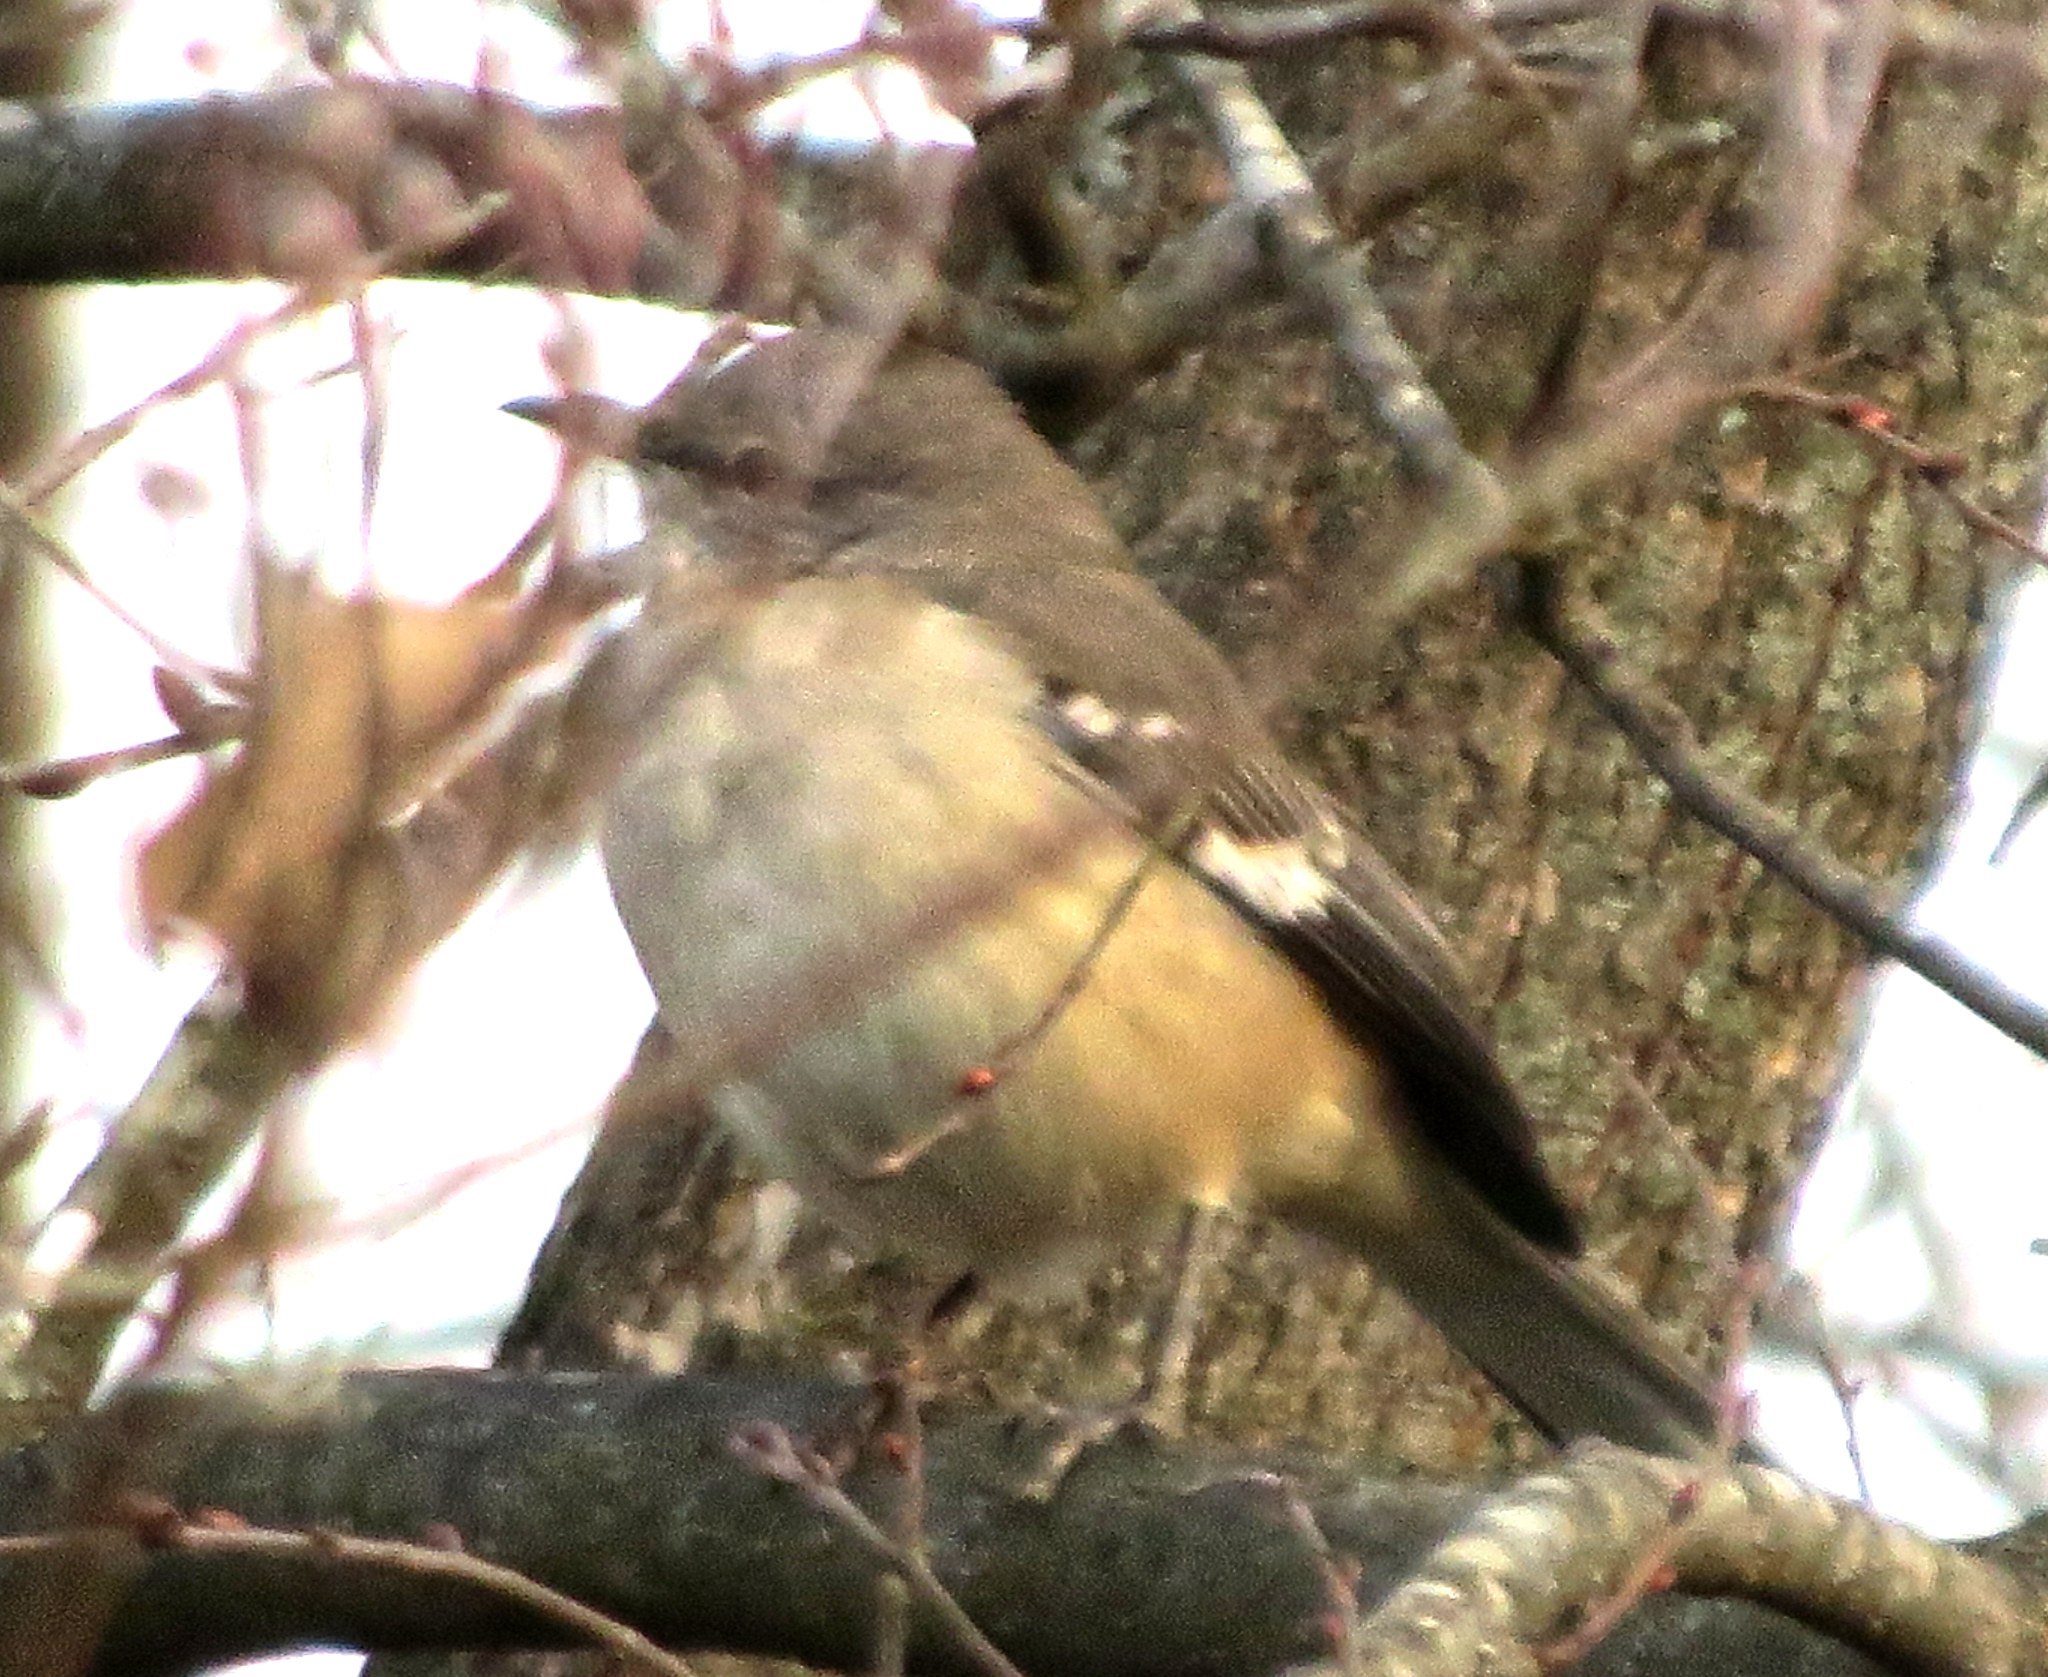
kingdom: Animalia
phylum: Chordata
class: Aves
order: Passeriformes
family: Mimidae
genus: Mimus
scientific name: Mimus polyglottos
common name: Northern mockingbird
